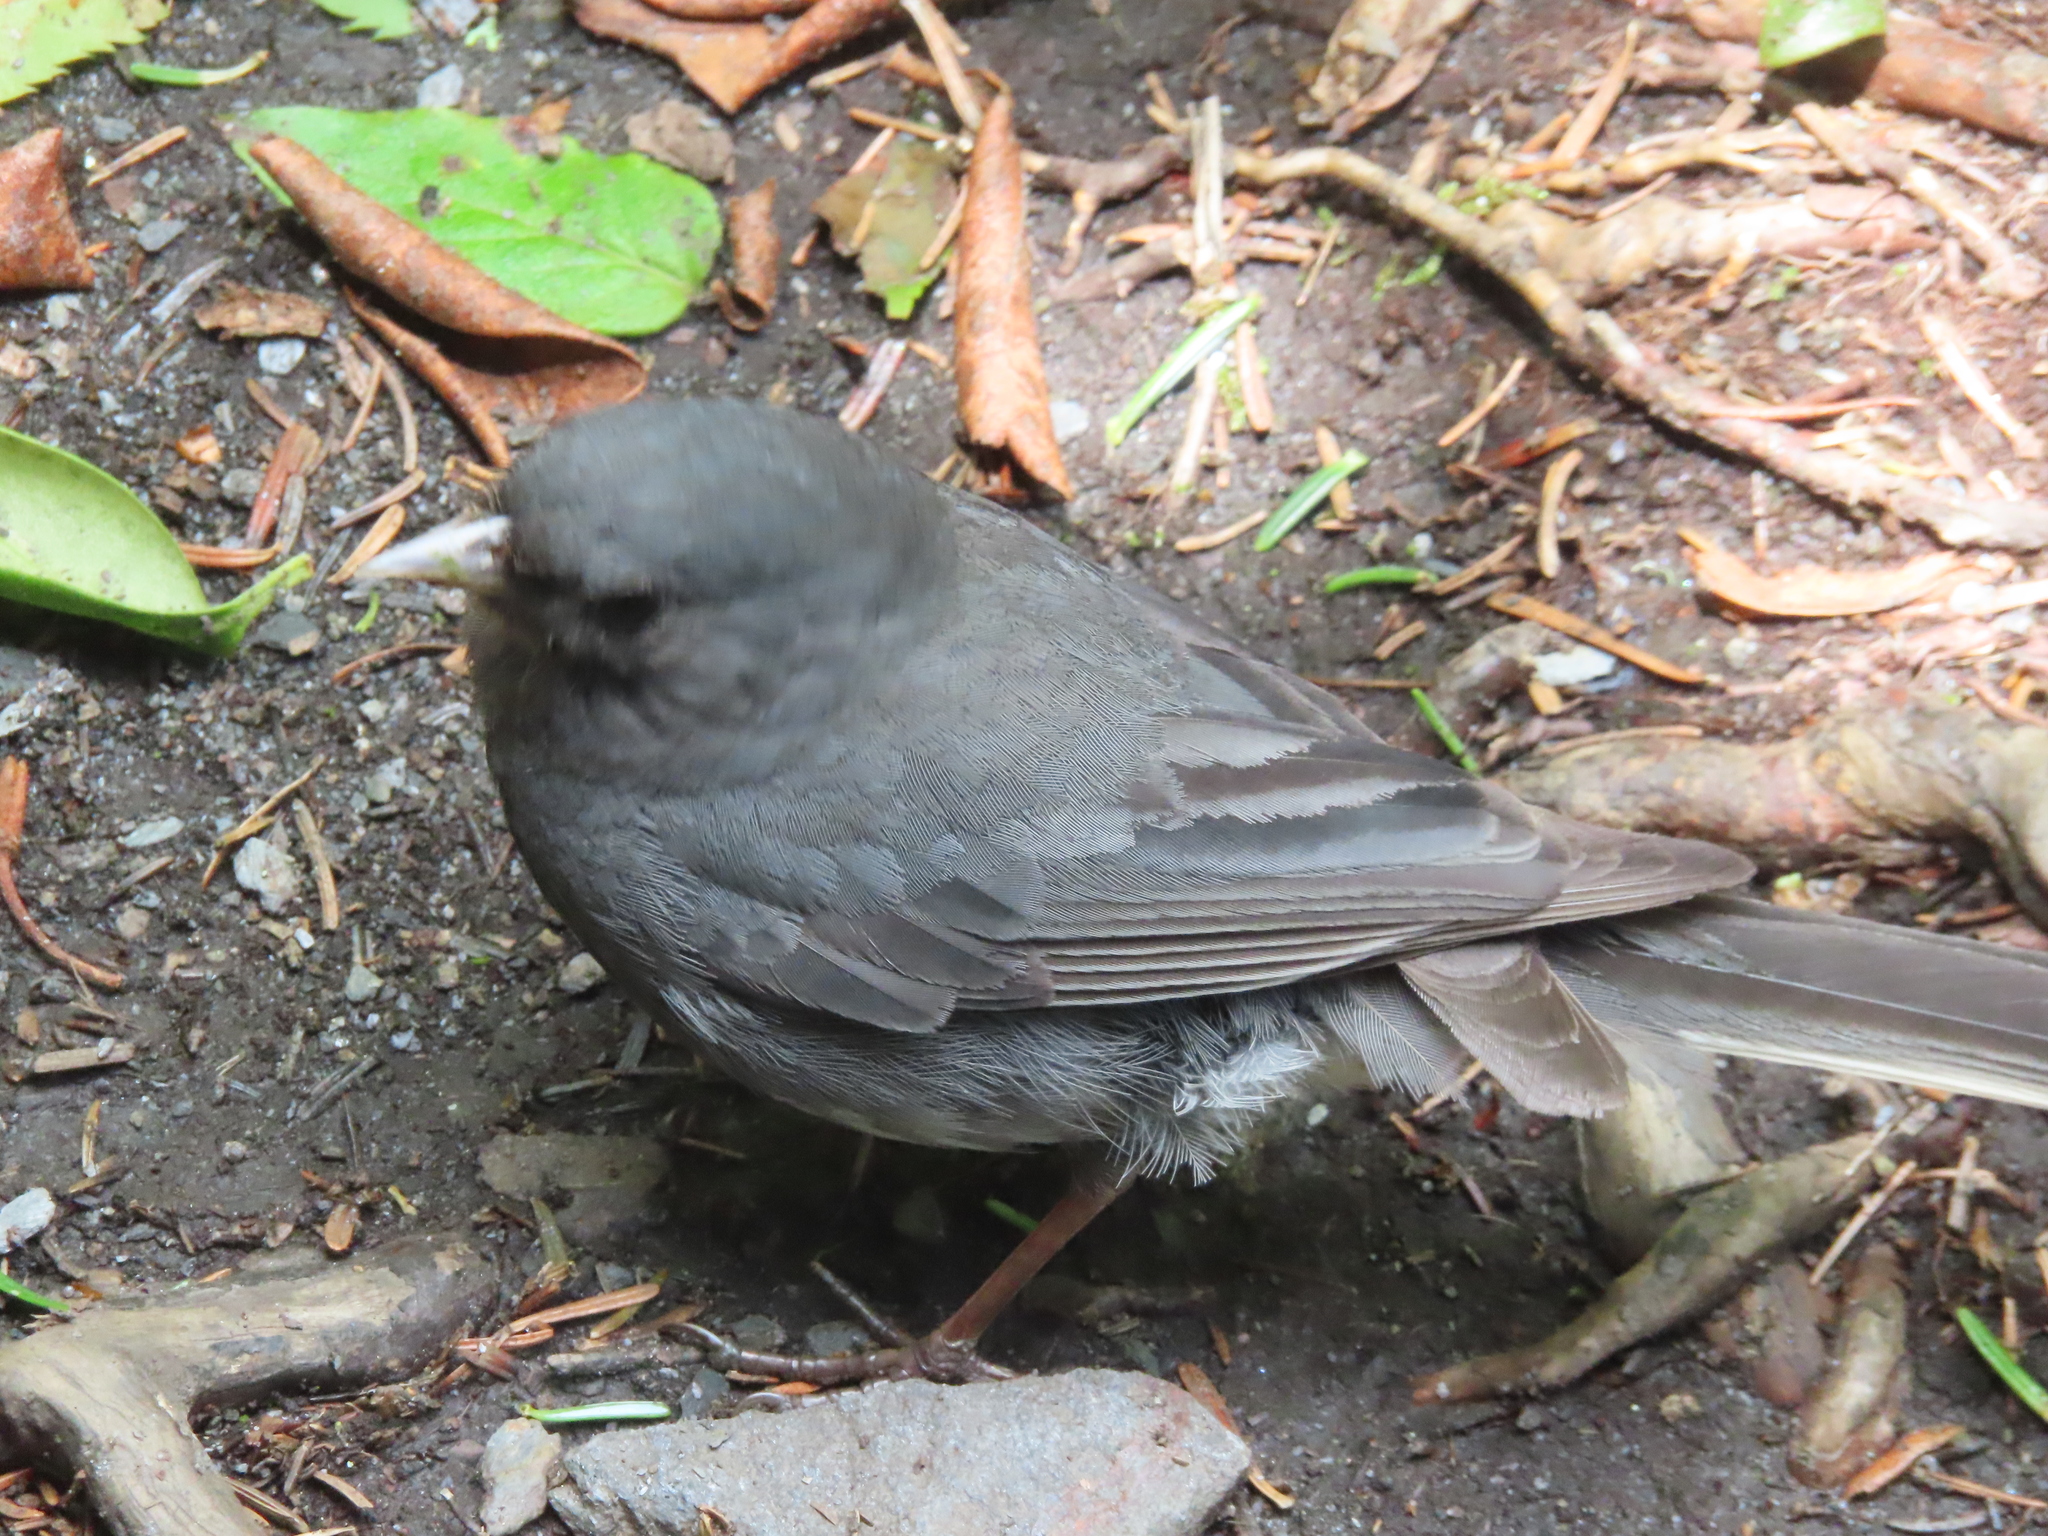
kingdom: Animalia
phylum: Chordata
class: Aves
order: Passeriformes
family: Passerellidae
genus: Junco
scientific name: Junco hyemalis
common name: Dark-eyed junco
